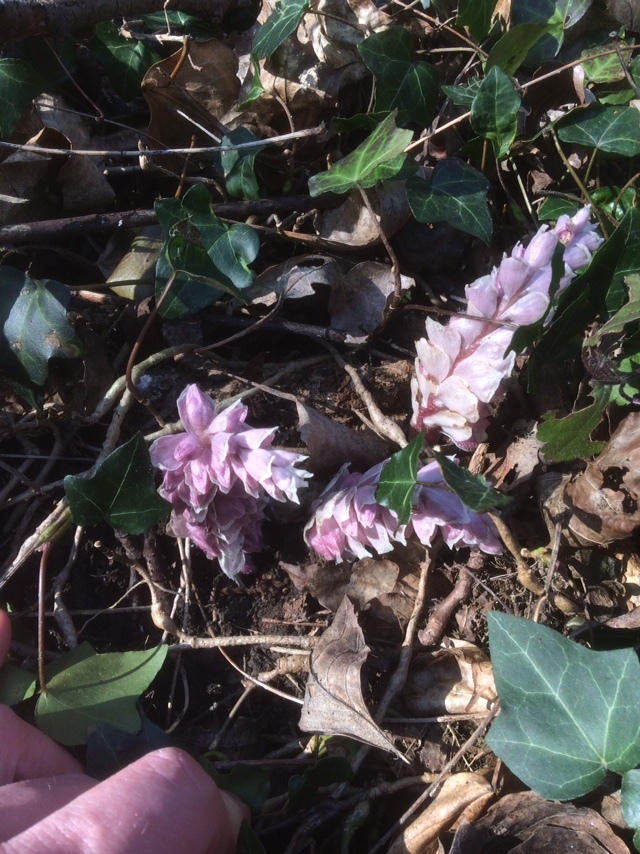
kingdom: Plantae
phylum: Tracheophyta
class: Magnoliopsida
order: Lamiales
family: Orobanchaceae
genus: Lathraea
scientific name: Lathraea squamaria
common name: Toothwort
